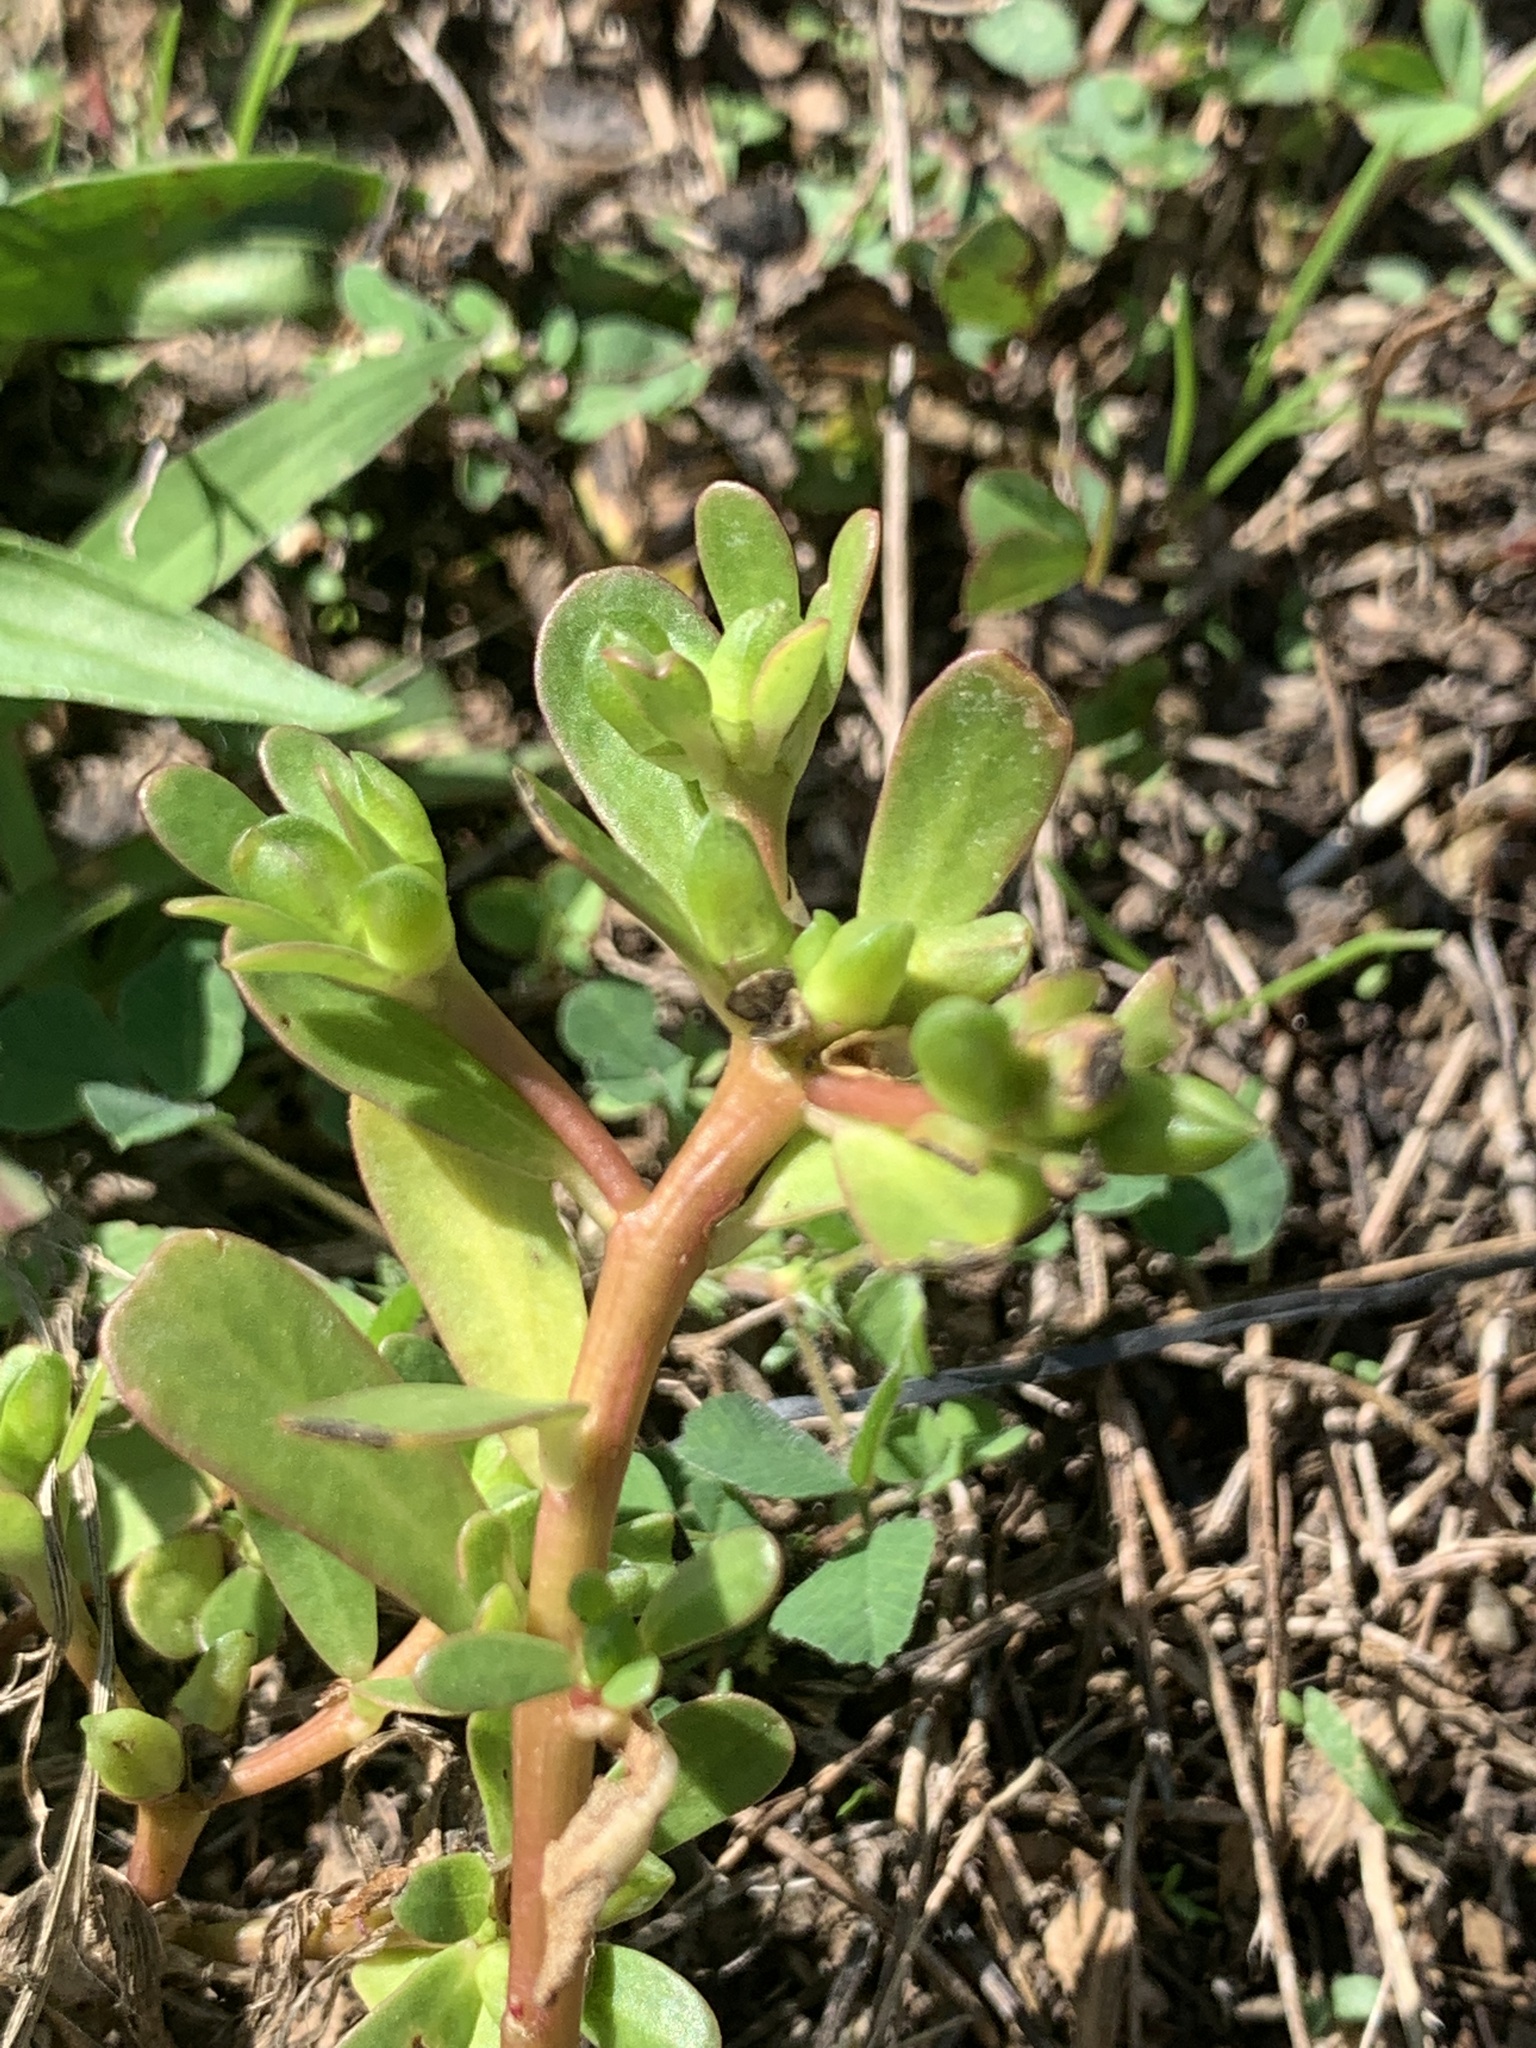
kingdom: Plantae
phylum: Tracheophyta
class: Magnoliopsida
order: Caryophyllales
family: Portulacaceae
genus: Portulaca
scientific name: Portulaca oleracea
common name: Common purslane
